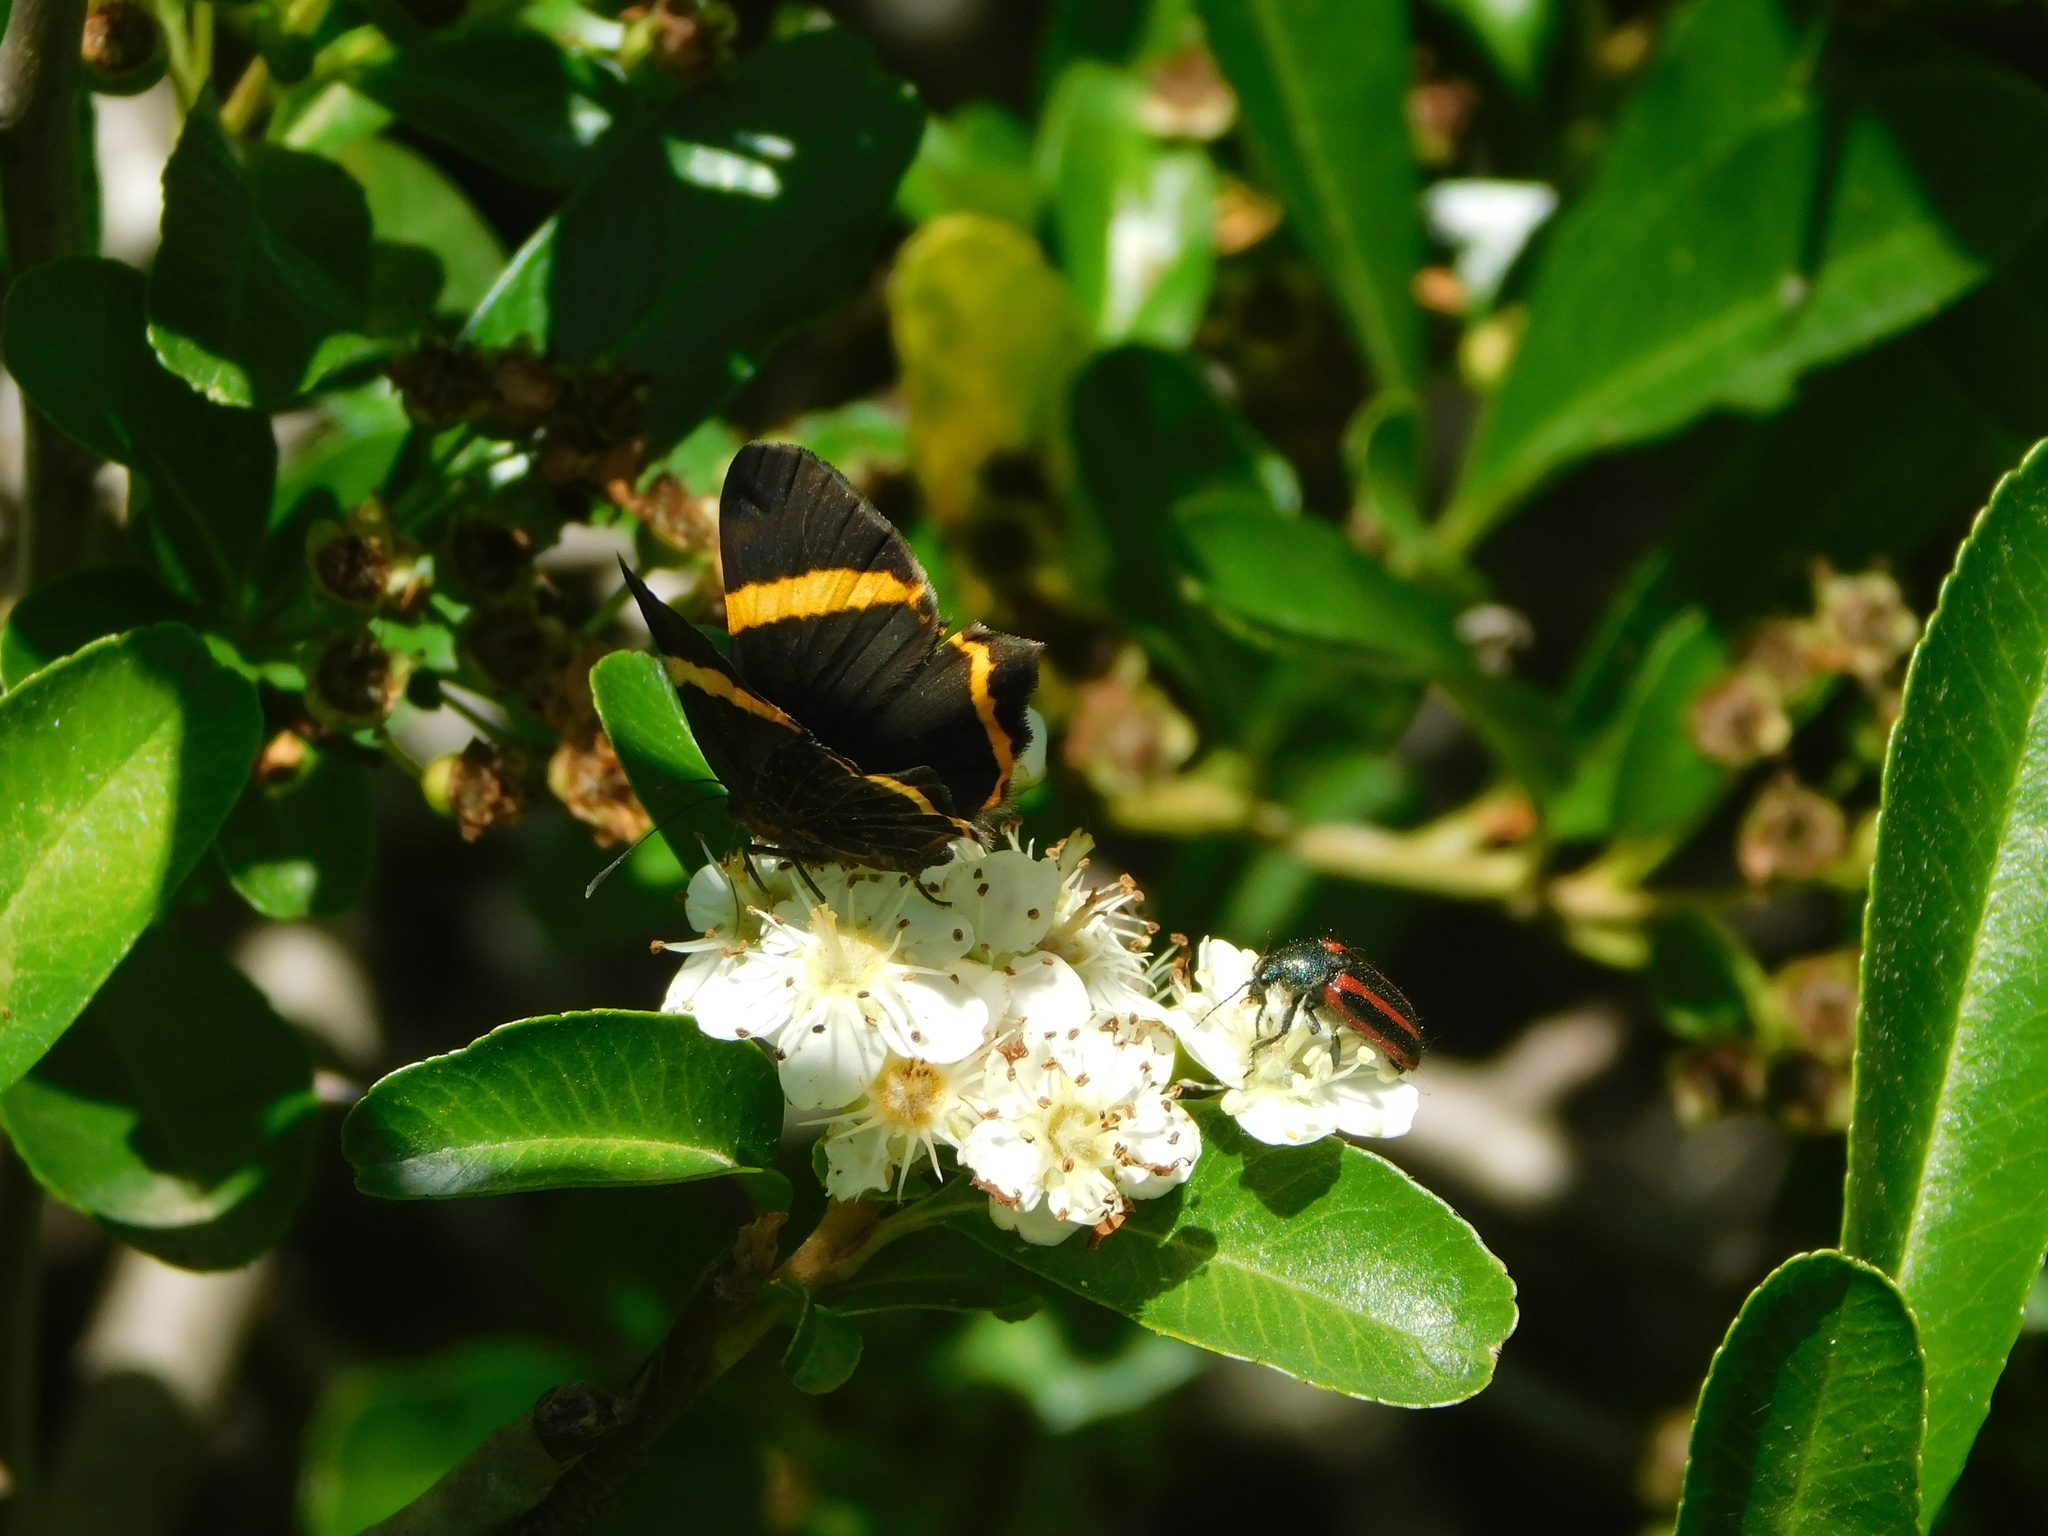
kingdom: Animalia
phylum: Arthropoda
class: Insecta
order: Lepidoptera
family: Riodinidae
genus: Riodina
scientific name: Riodina lysippoides
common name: Little dancer metalmark
